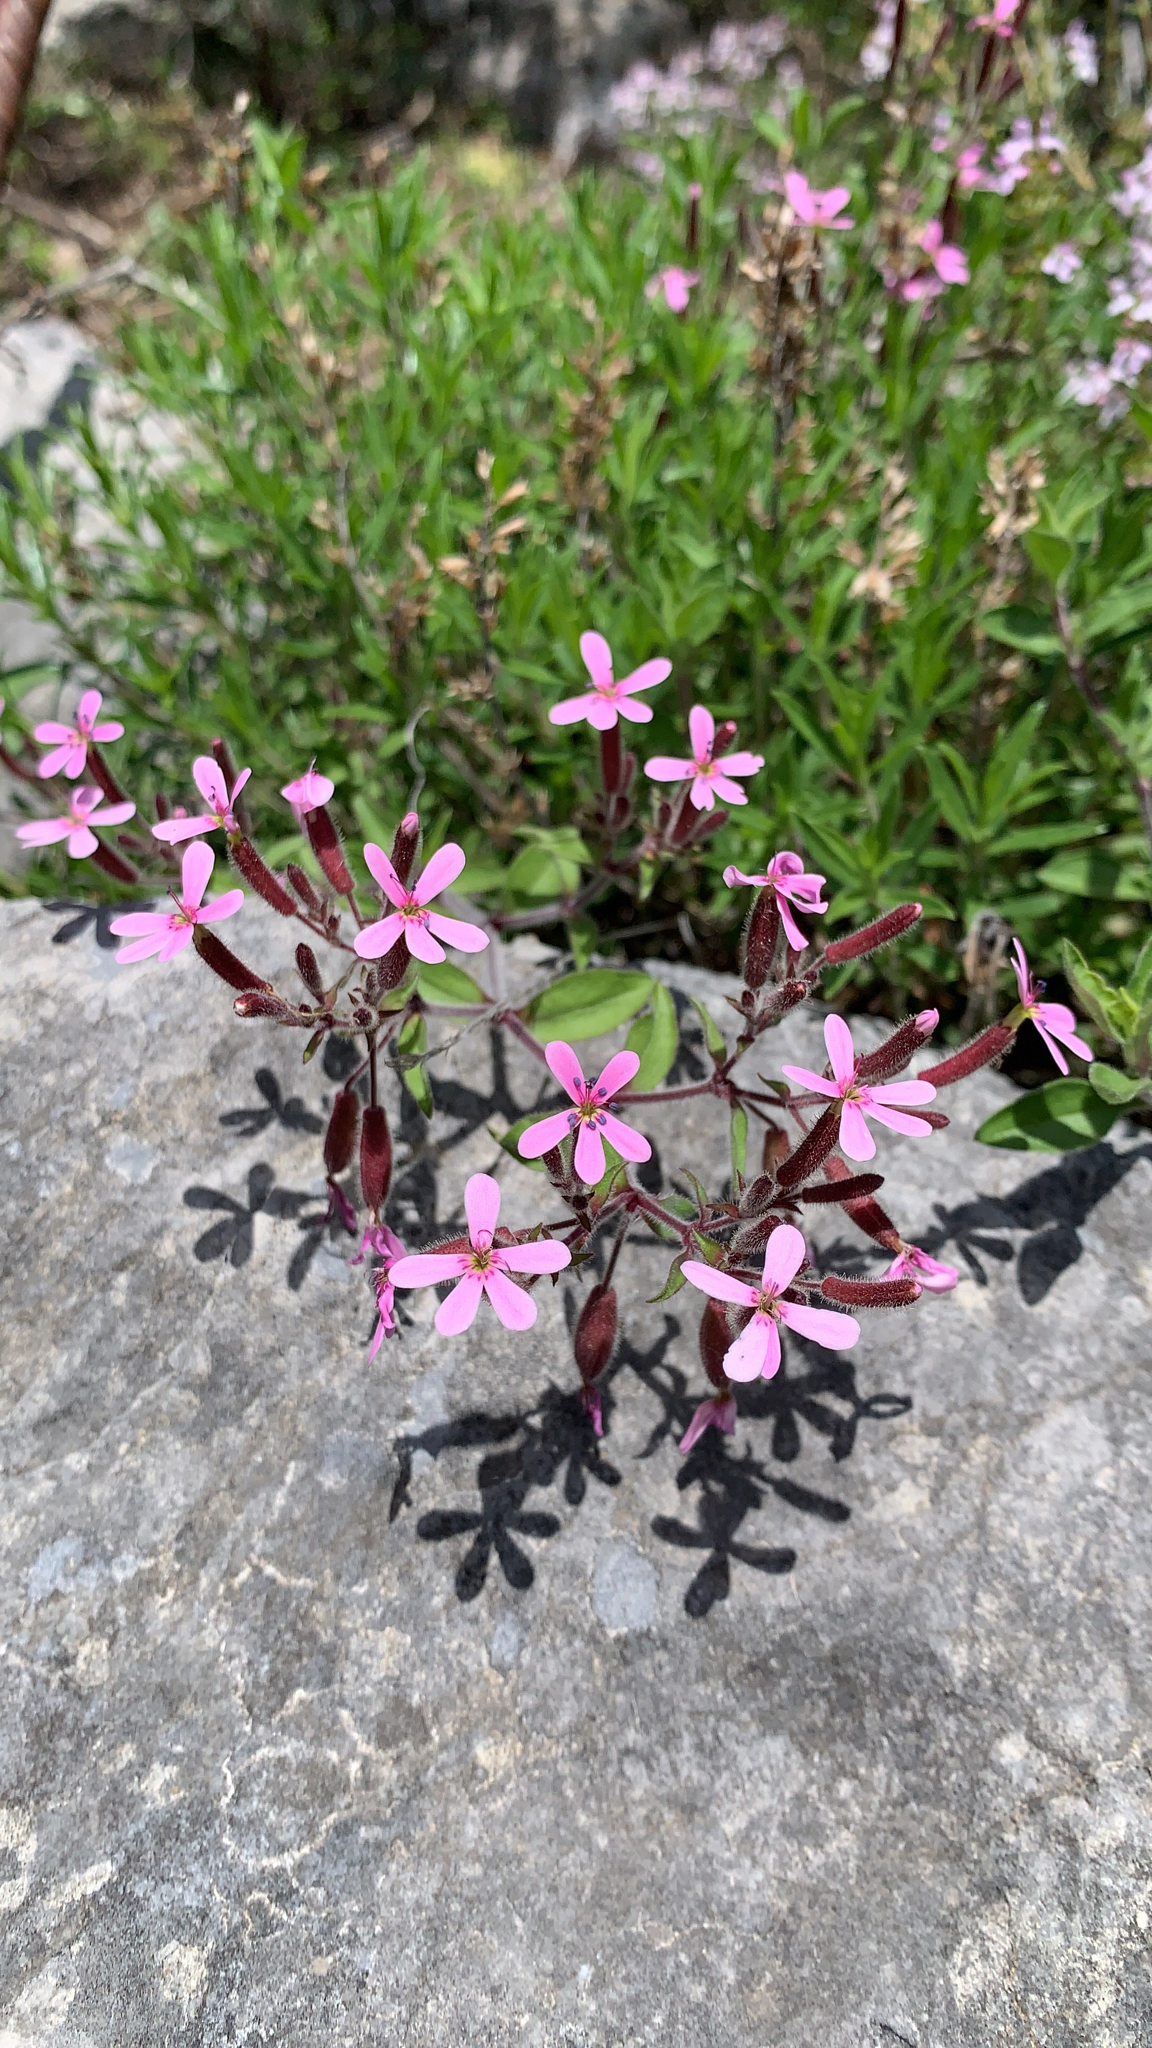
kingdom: Plantae
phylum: Tracheophyta
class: Magnoliopsida
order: Caryophyllales
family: Caryophyllaceae
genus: Saponaria
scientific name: Saponaria ocymoides
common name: Rock soapwort
